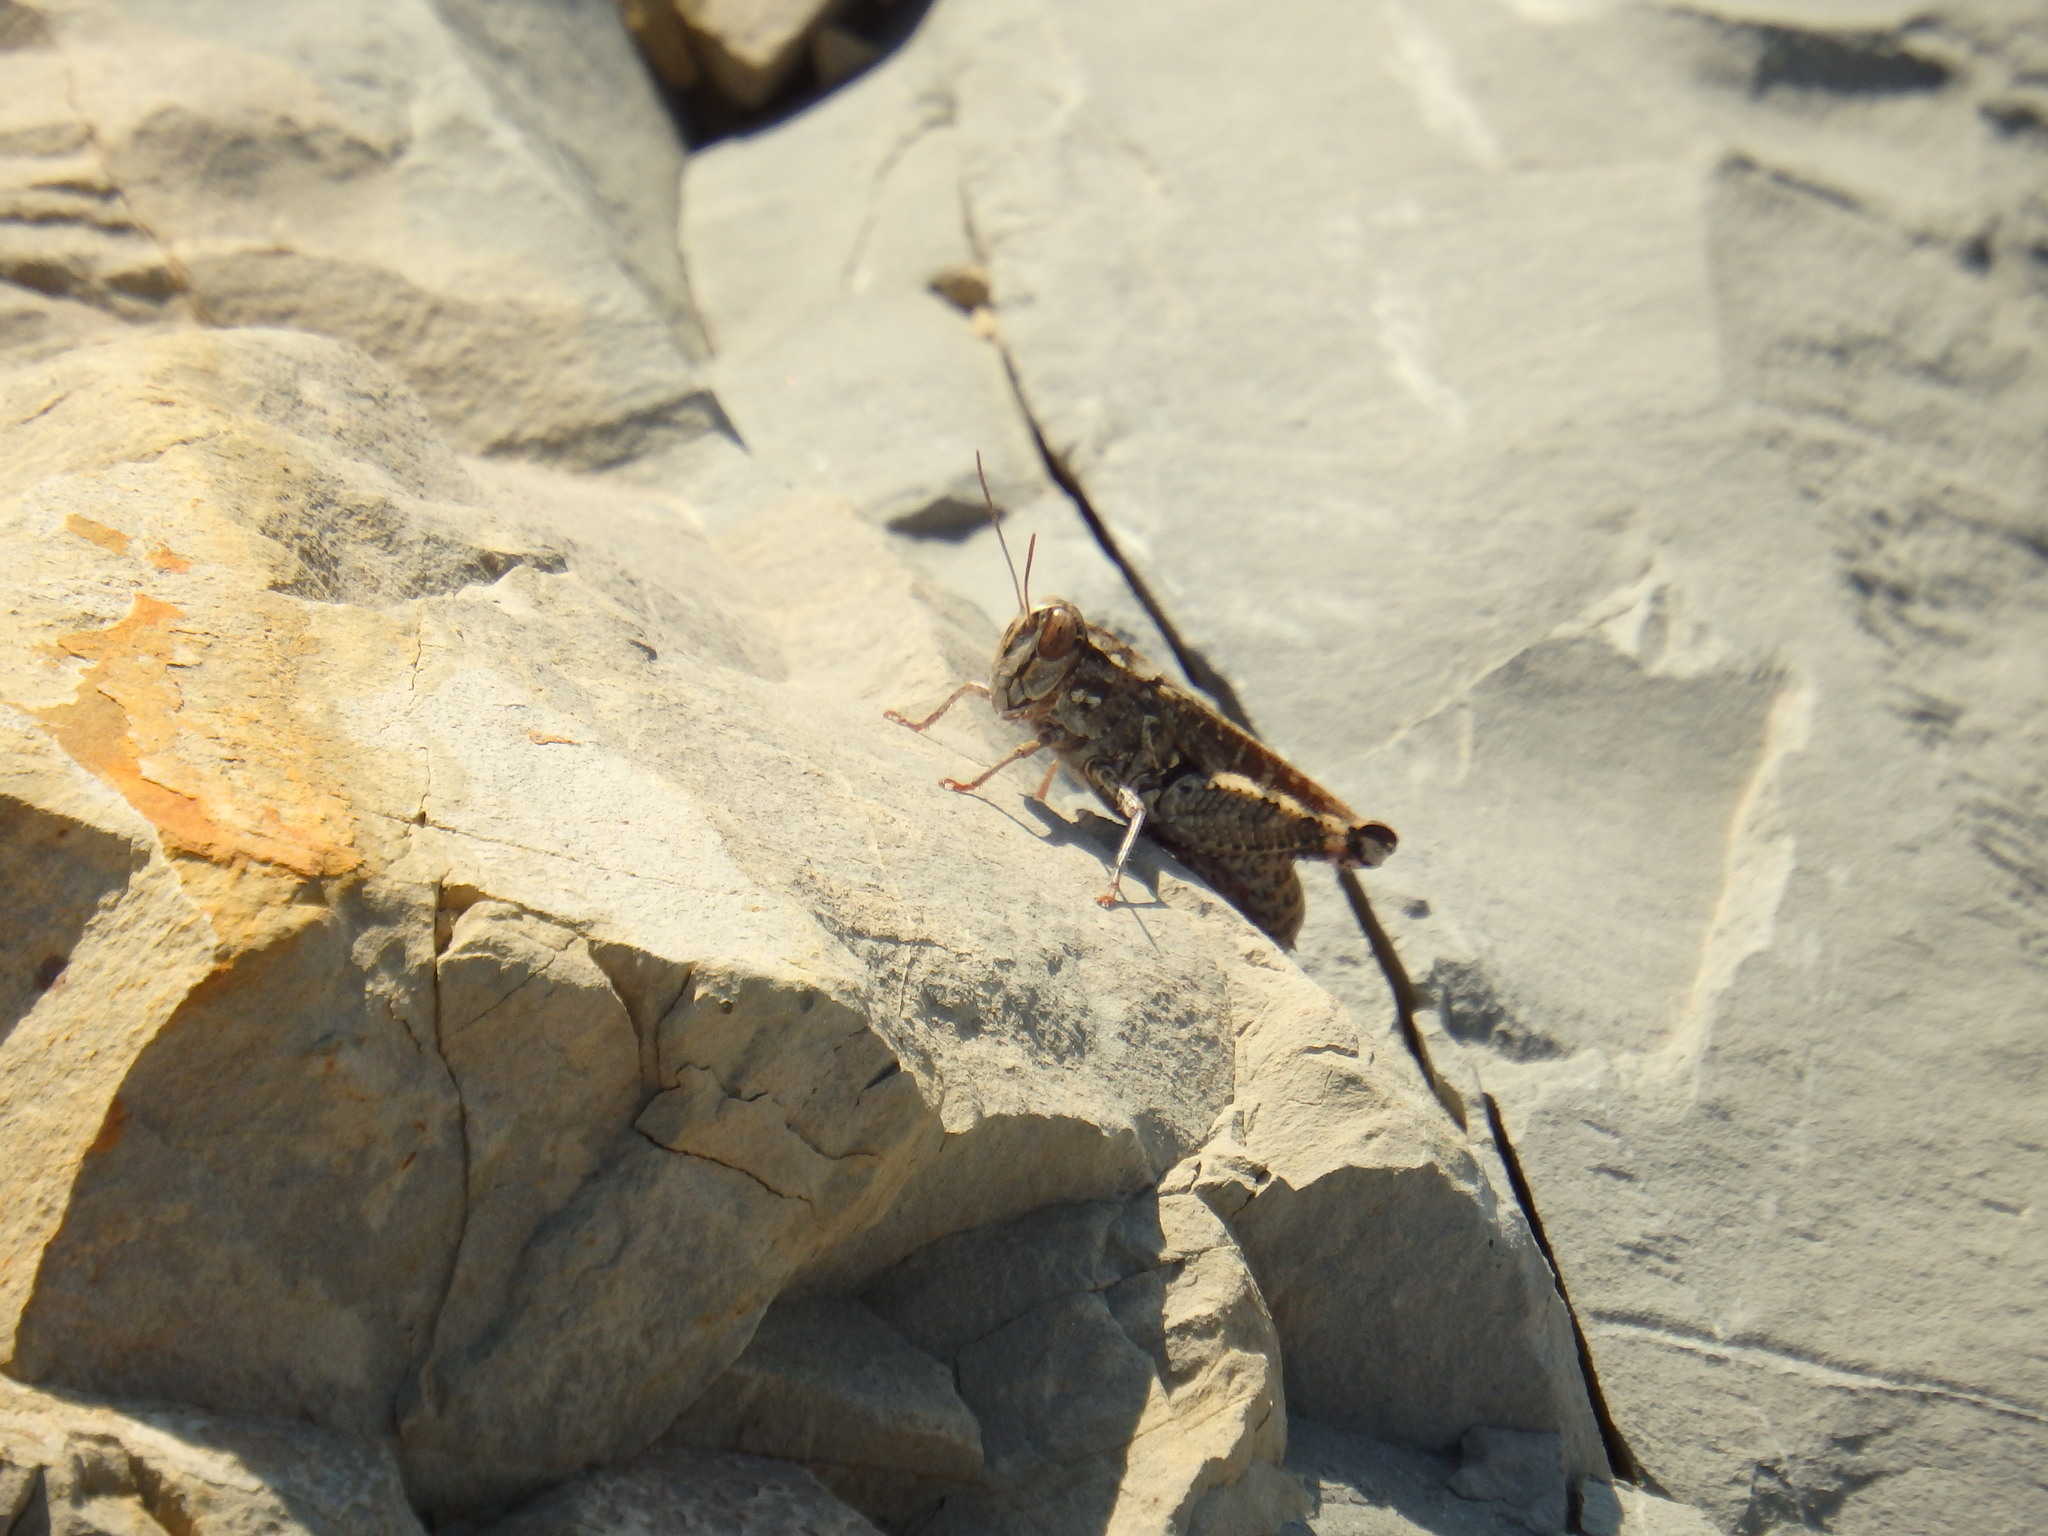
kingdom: Animalia
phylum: Arthropoda
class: Insecta
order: Orthoptera
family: Acrididae
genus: Calliptamus
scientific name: Calliptamus barbarus
